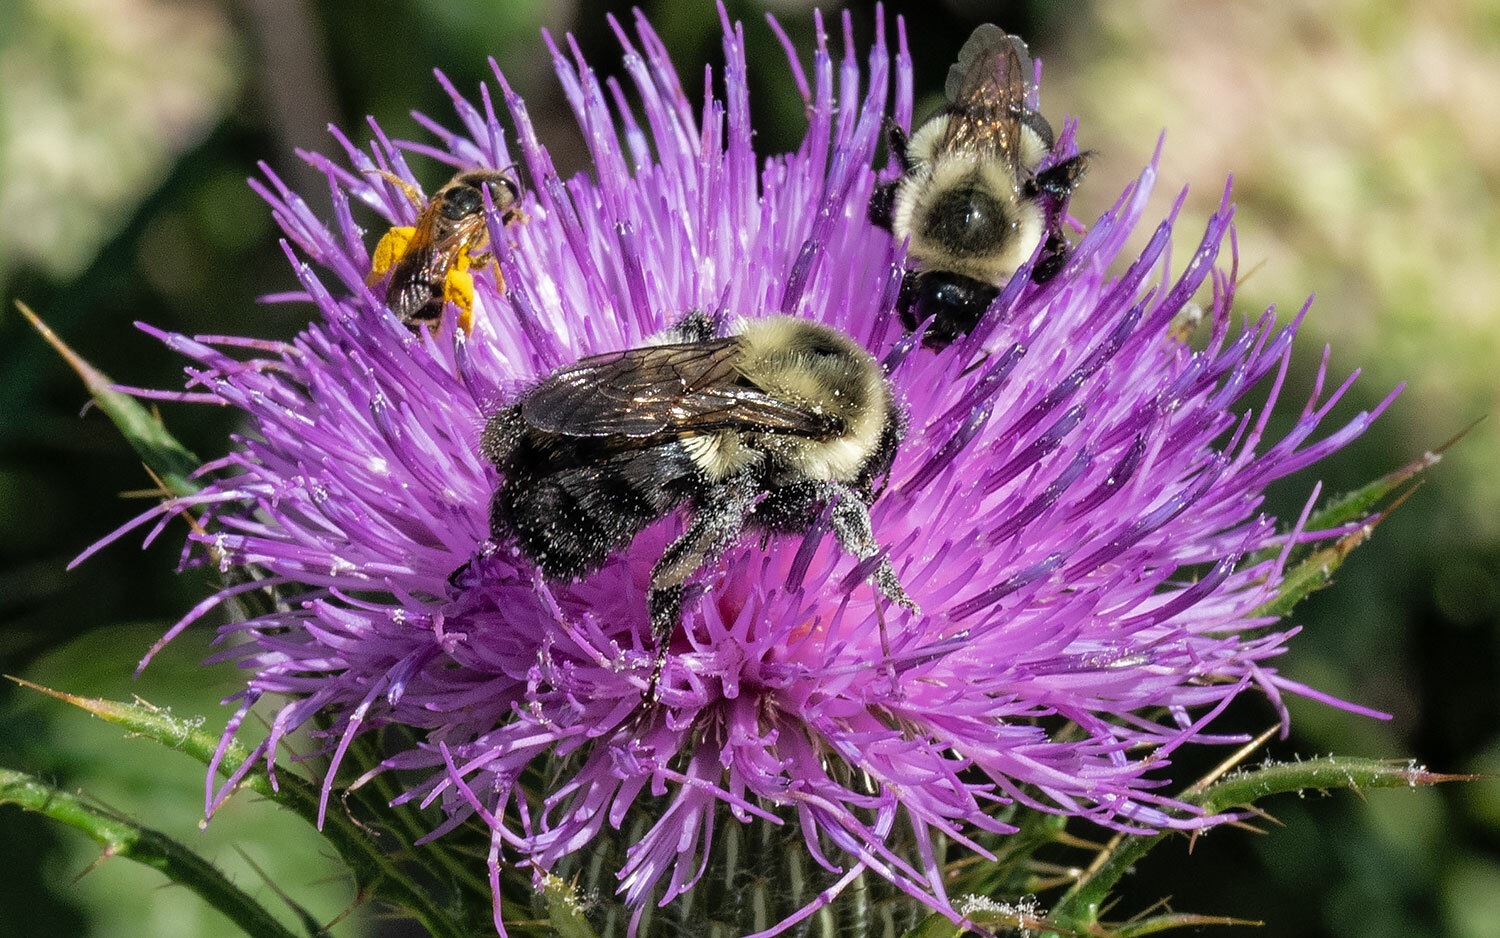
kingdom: Animalia
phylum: Arthropoda
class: Insecta
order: Hymenoptera
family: Apidae
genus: Bombus
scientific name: Bombus impatiens
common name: Common eastern bumble bee
